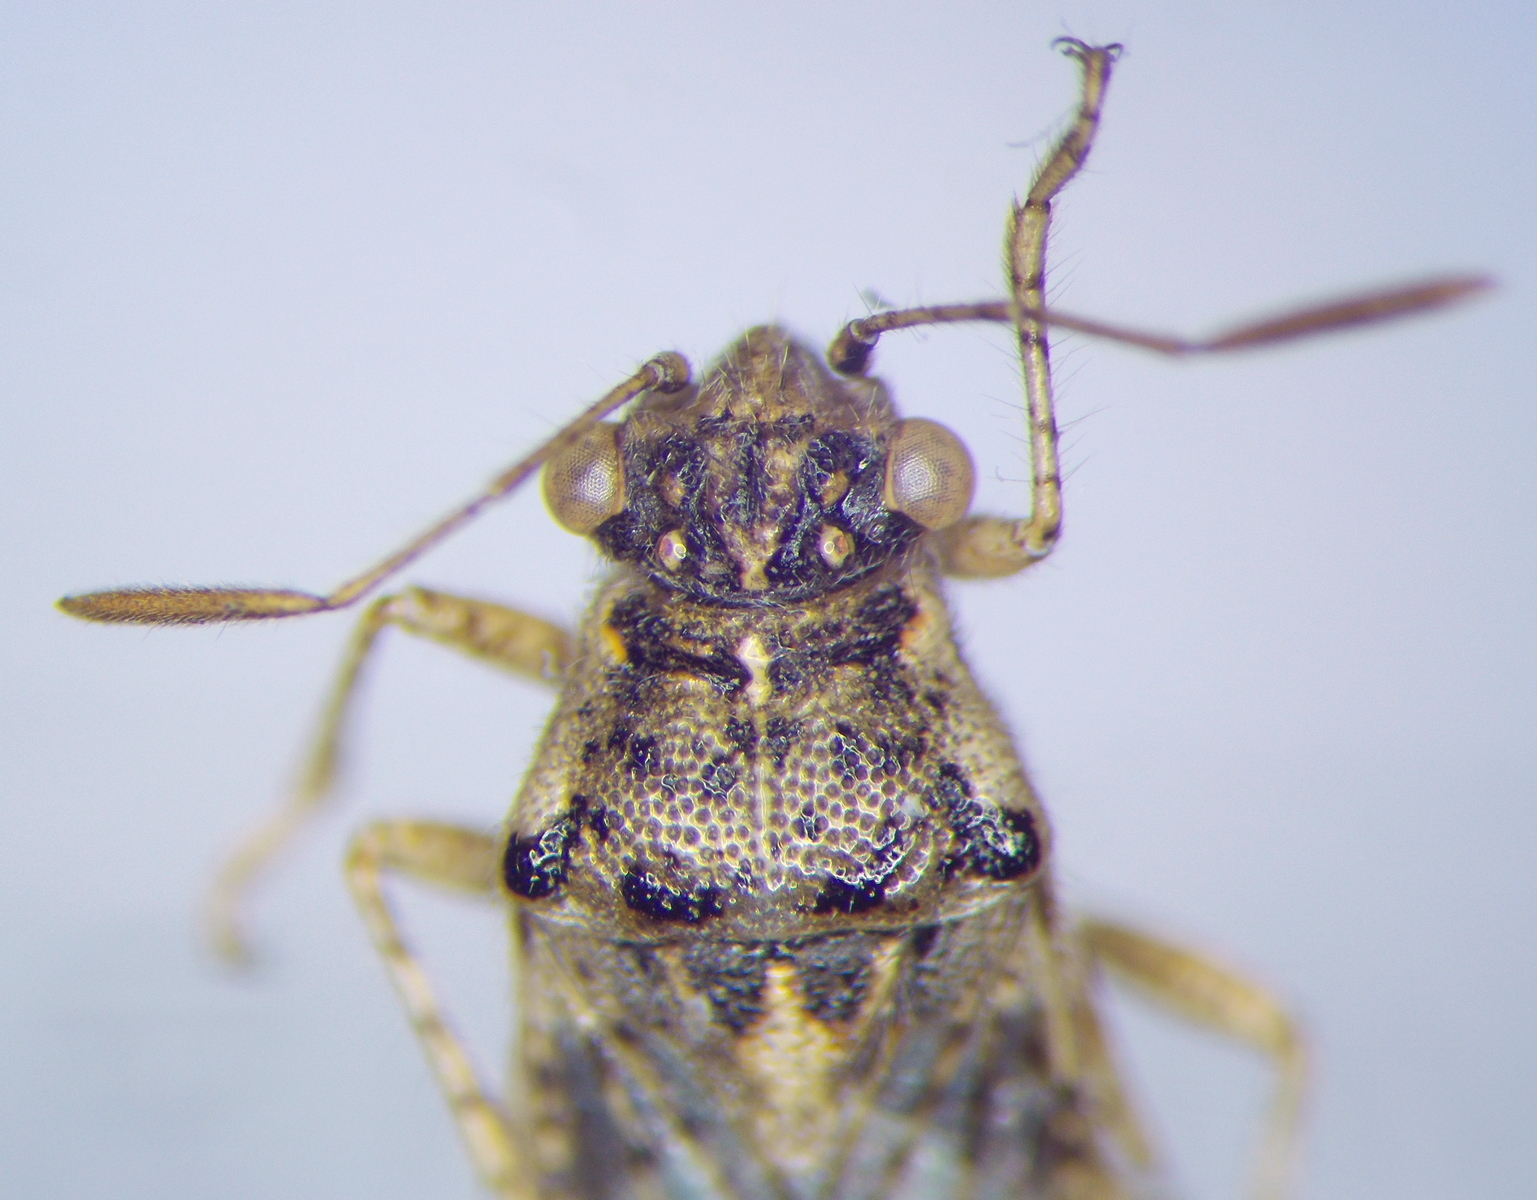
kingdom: Animalia
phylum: Arthropoda
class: Insecta
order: Hemiptera
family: Rhopalidae
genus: Brachycarenus
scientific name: Brachycarenus tigrinus
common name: Scentless plant bug
